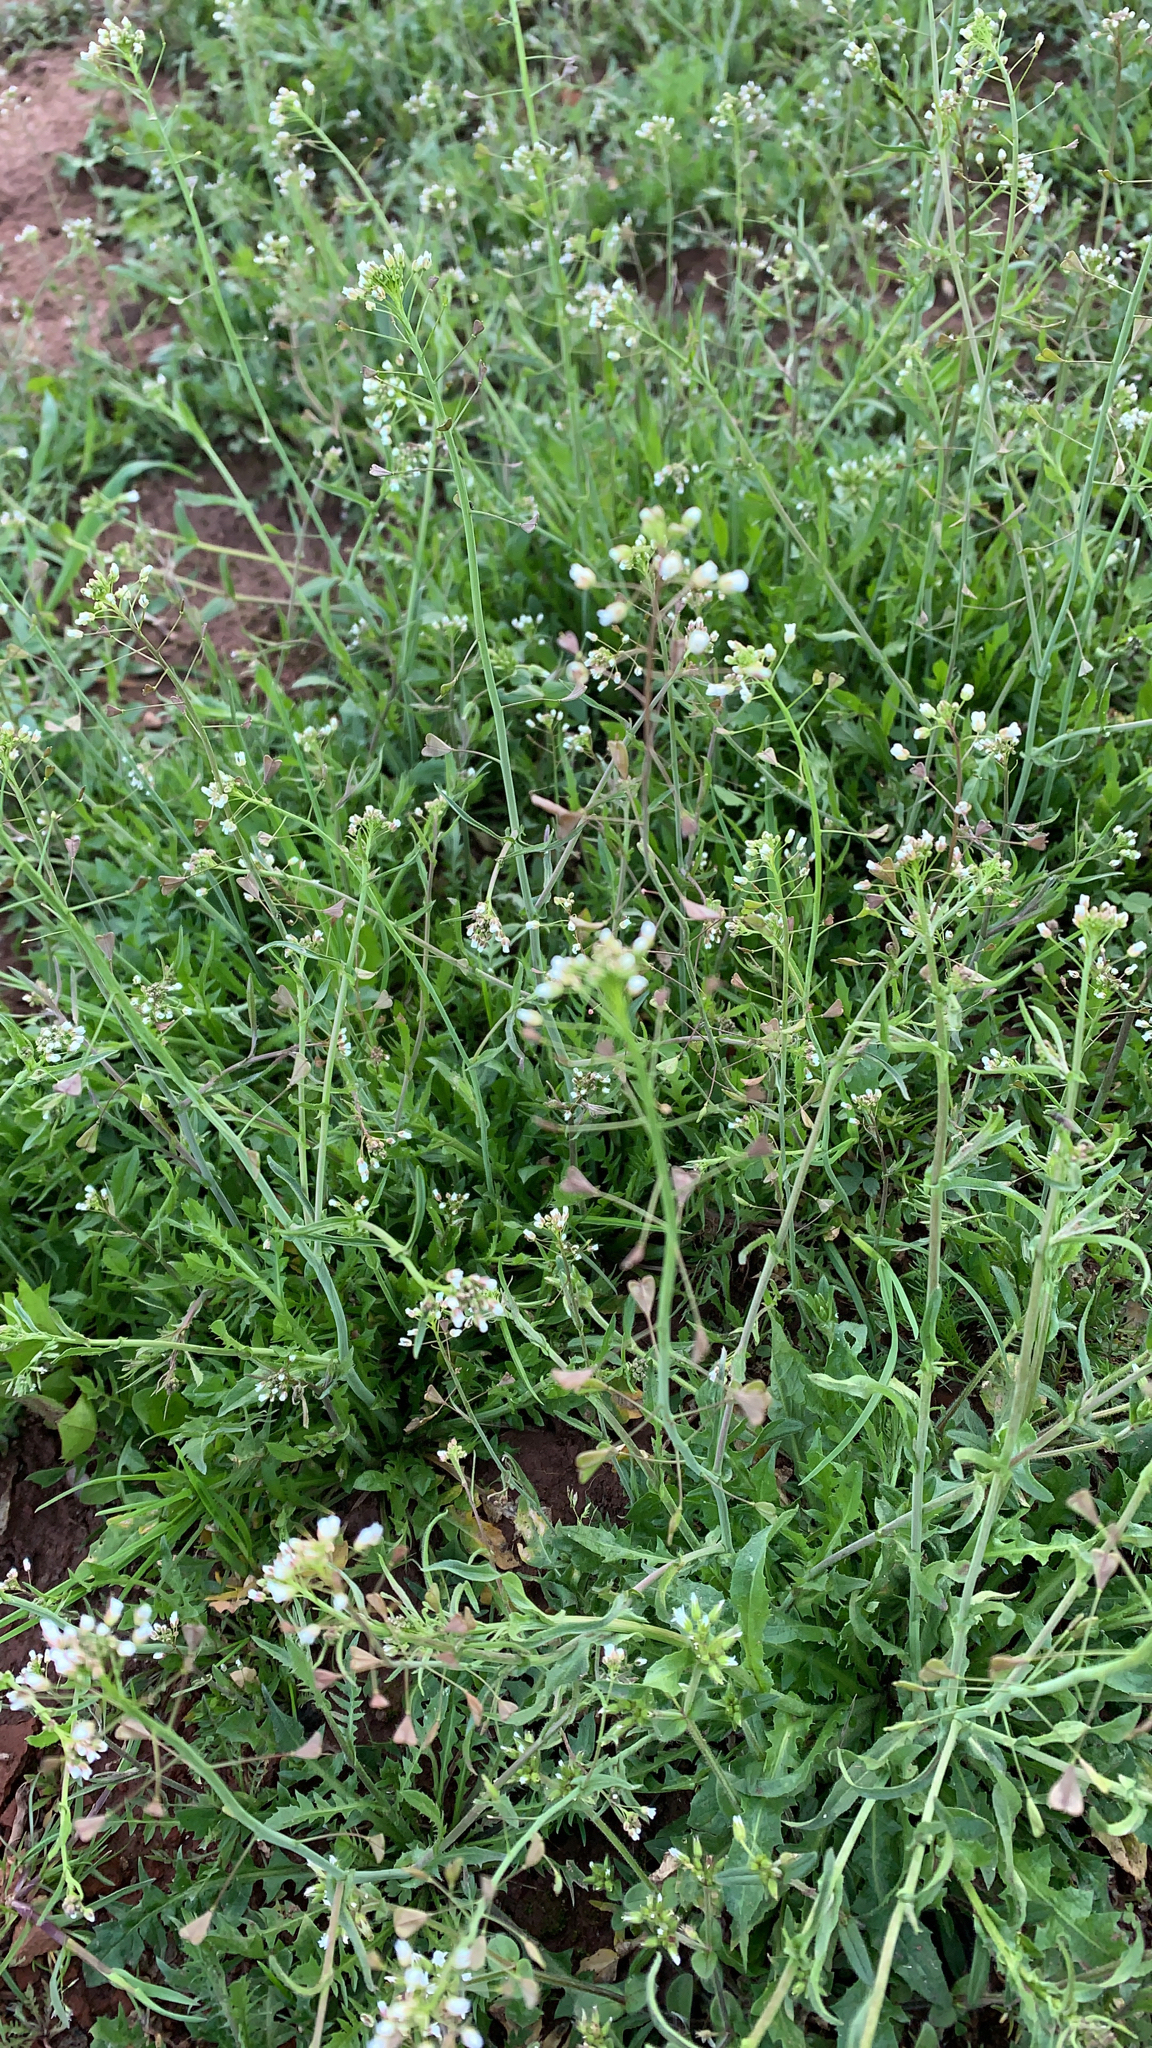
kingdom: Plantae
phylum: Tracheophyta
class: Magnoliopsida
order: Brassicales
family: Brassicaceae
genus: Capsella
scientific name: Capsella bursa-pastoris
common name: Shepherd's purse
